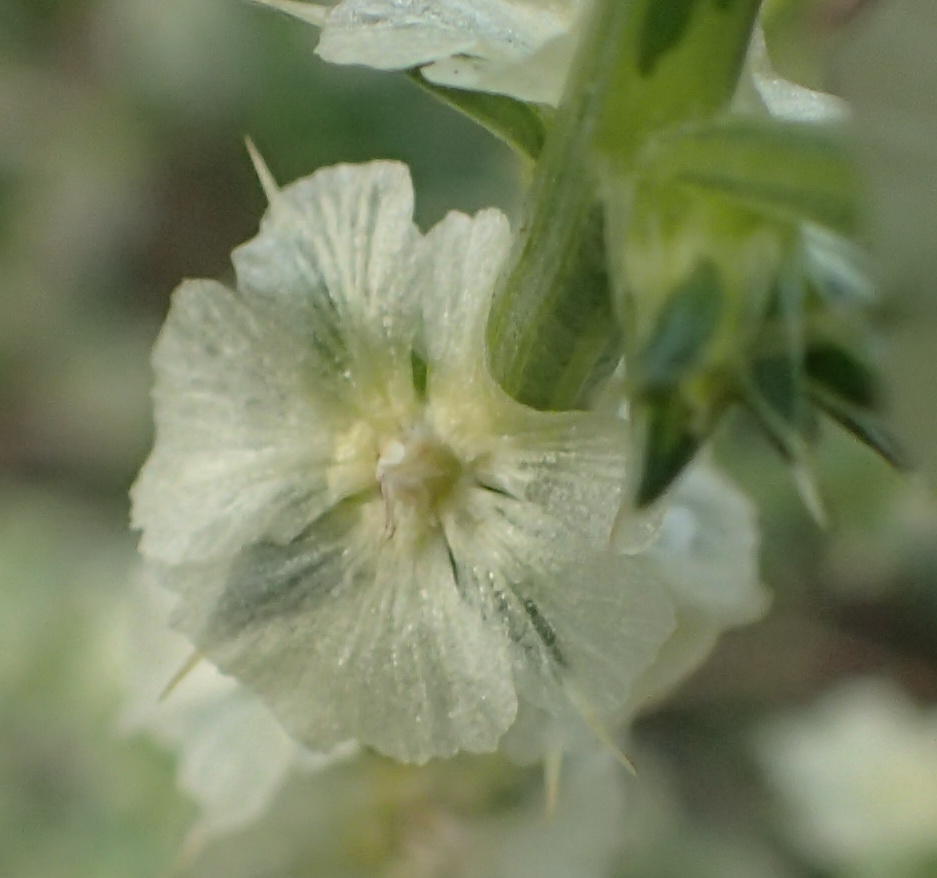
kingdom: Plantae
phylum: Tracheophyta
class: Magnoliopsida
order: Caryophyllales
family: Amaranthaceae
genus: Salsola
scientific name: Salsola kali
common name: Saltwort
